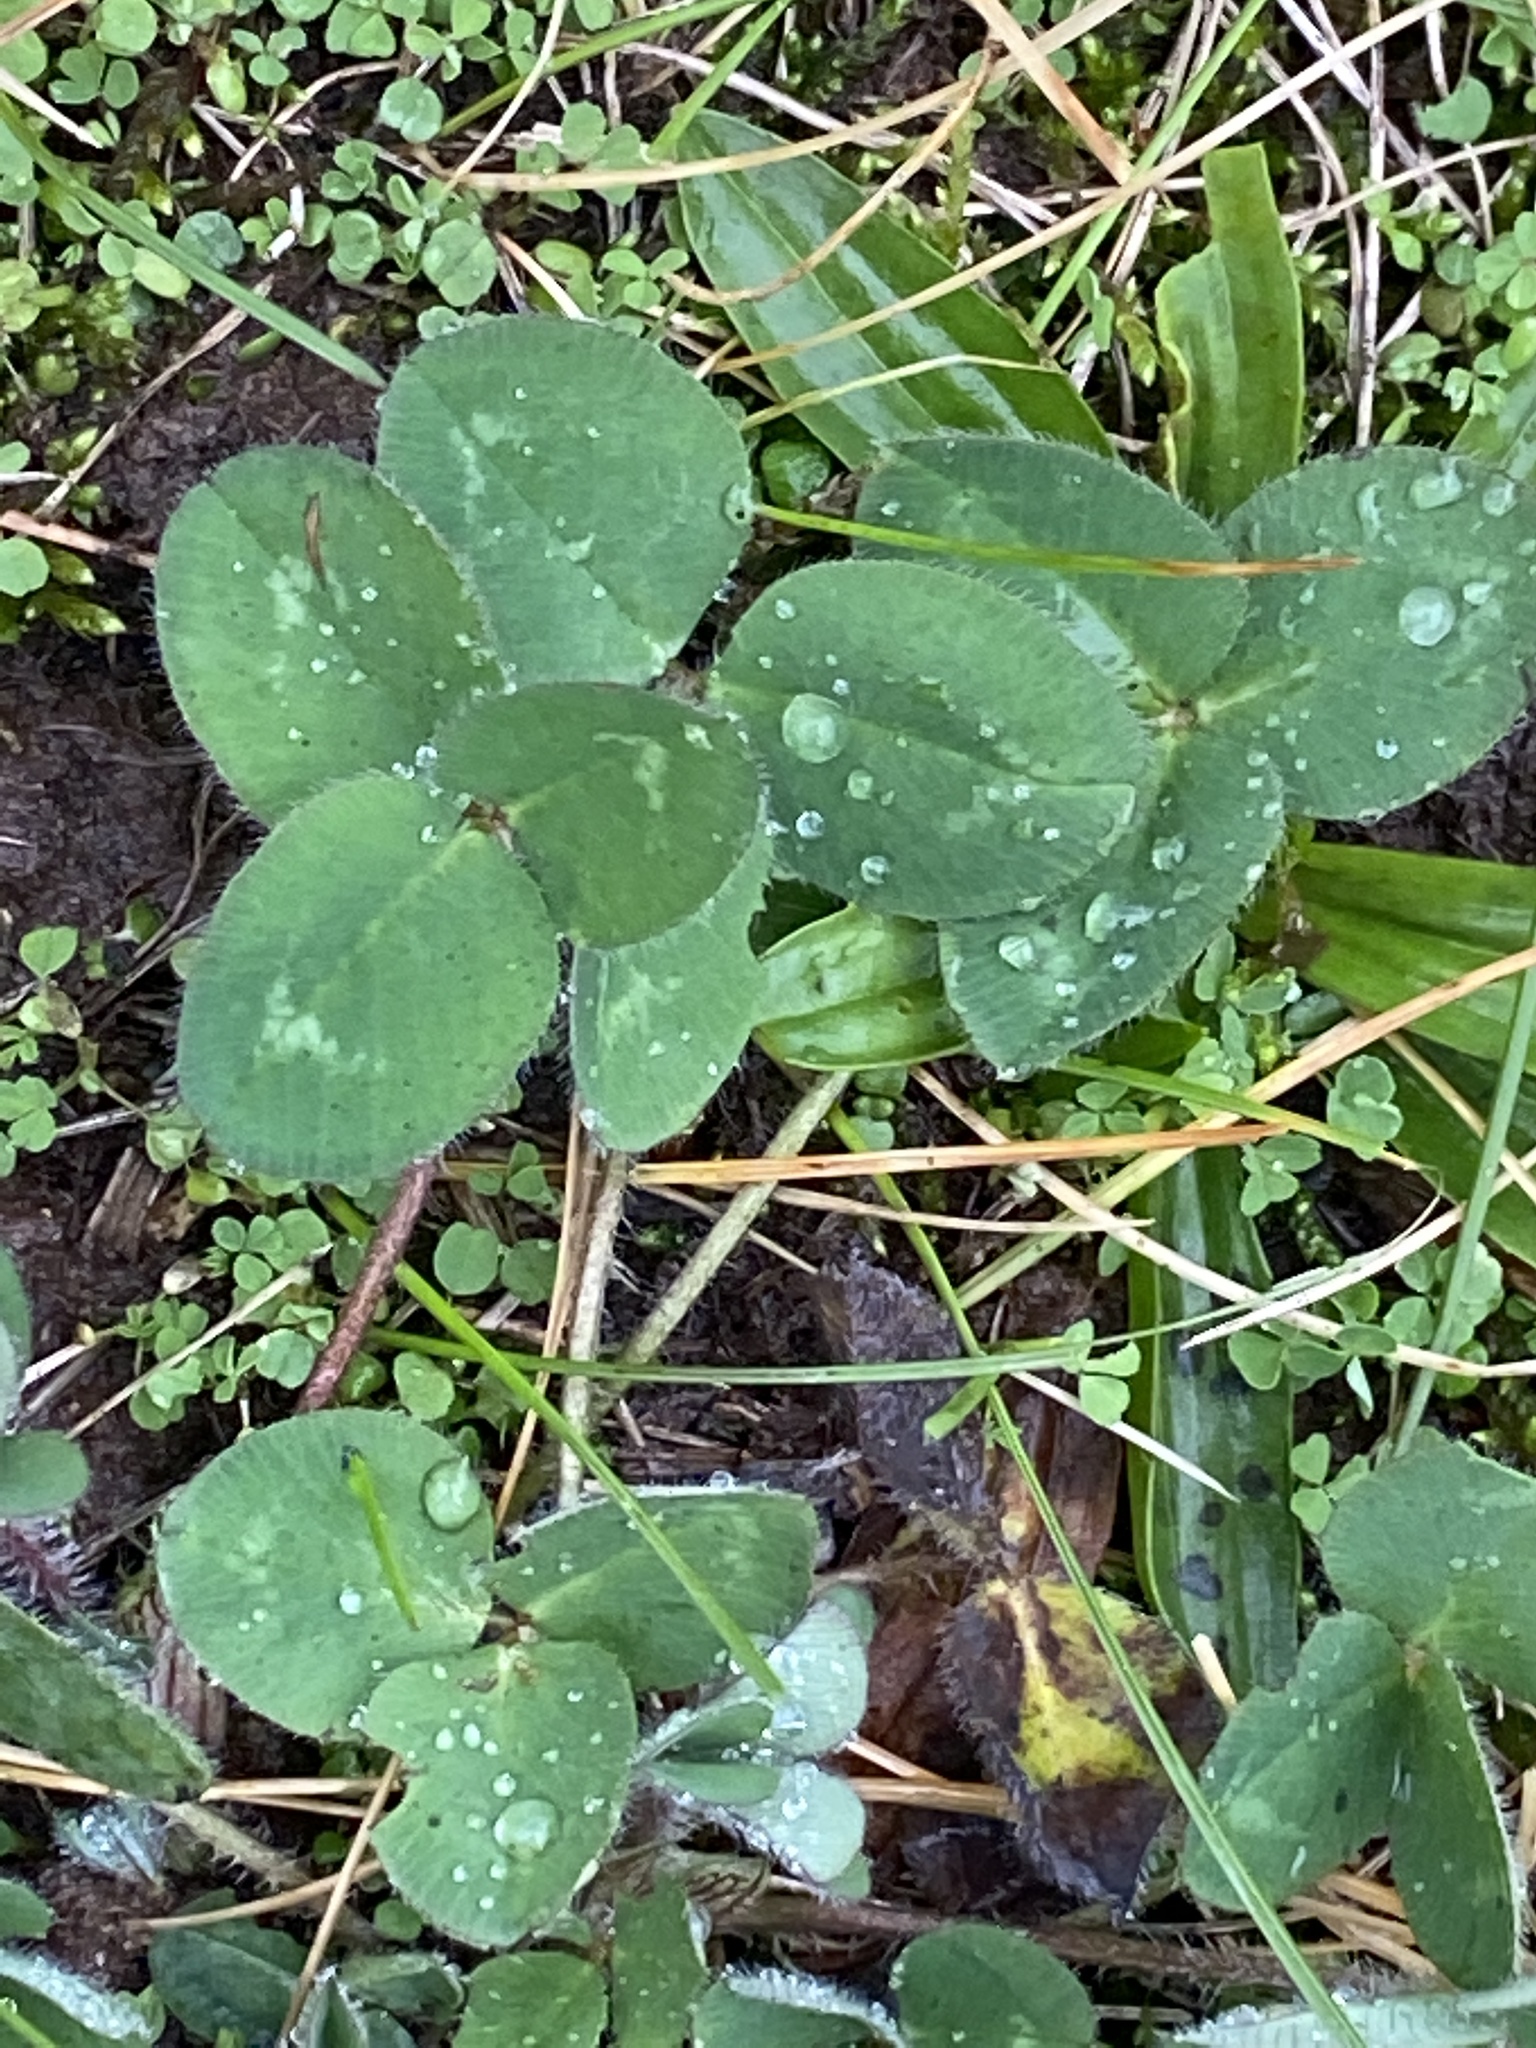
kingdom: Plantae
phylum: Tracheophyta
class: Magnoliopsida
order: Fabales
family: Fabaceae
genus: Trifolium
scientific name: Trifolium pratense
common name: Red clover
